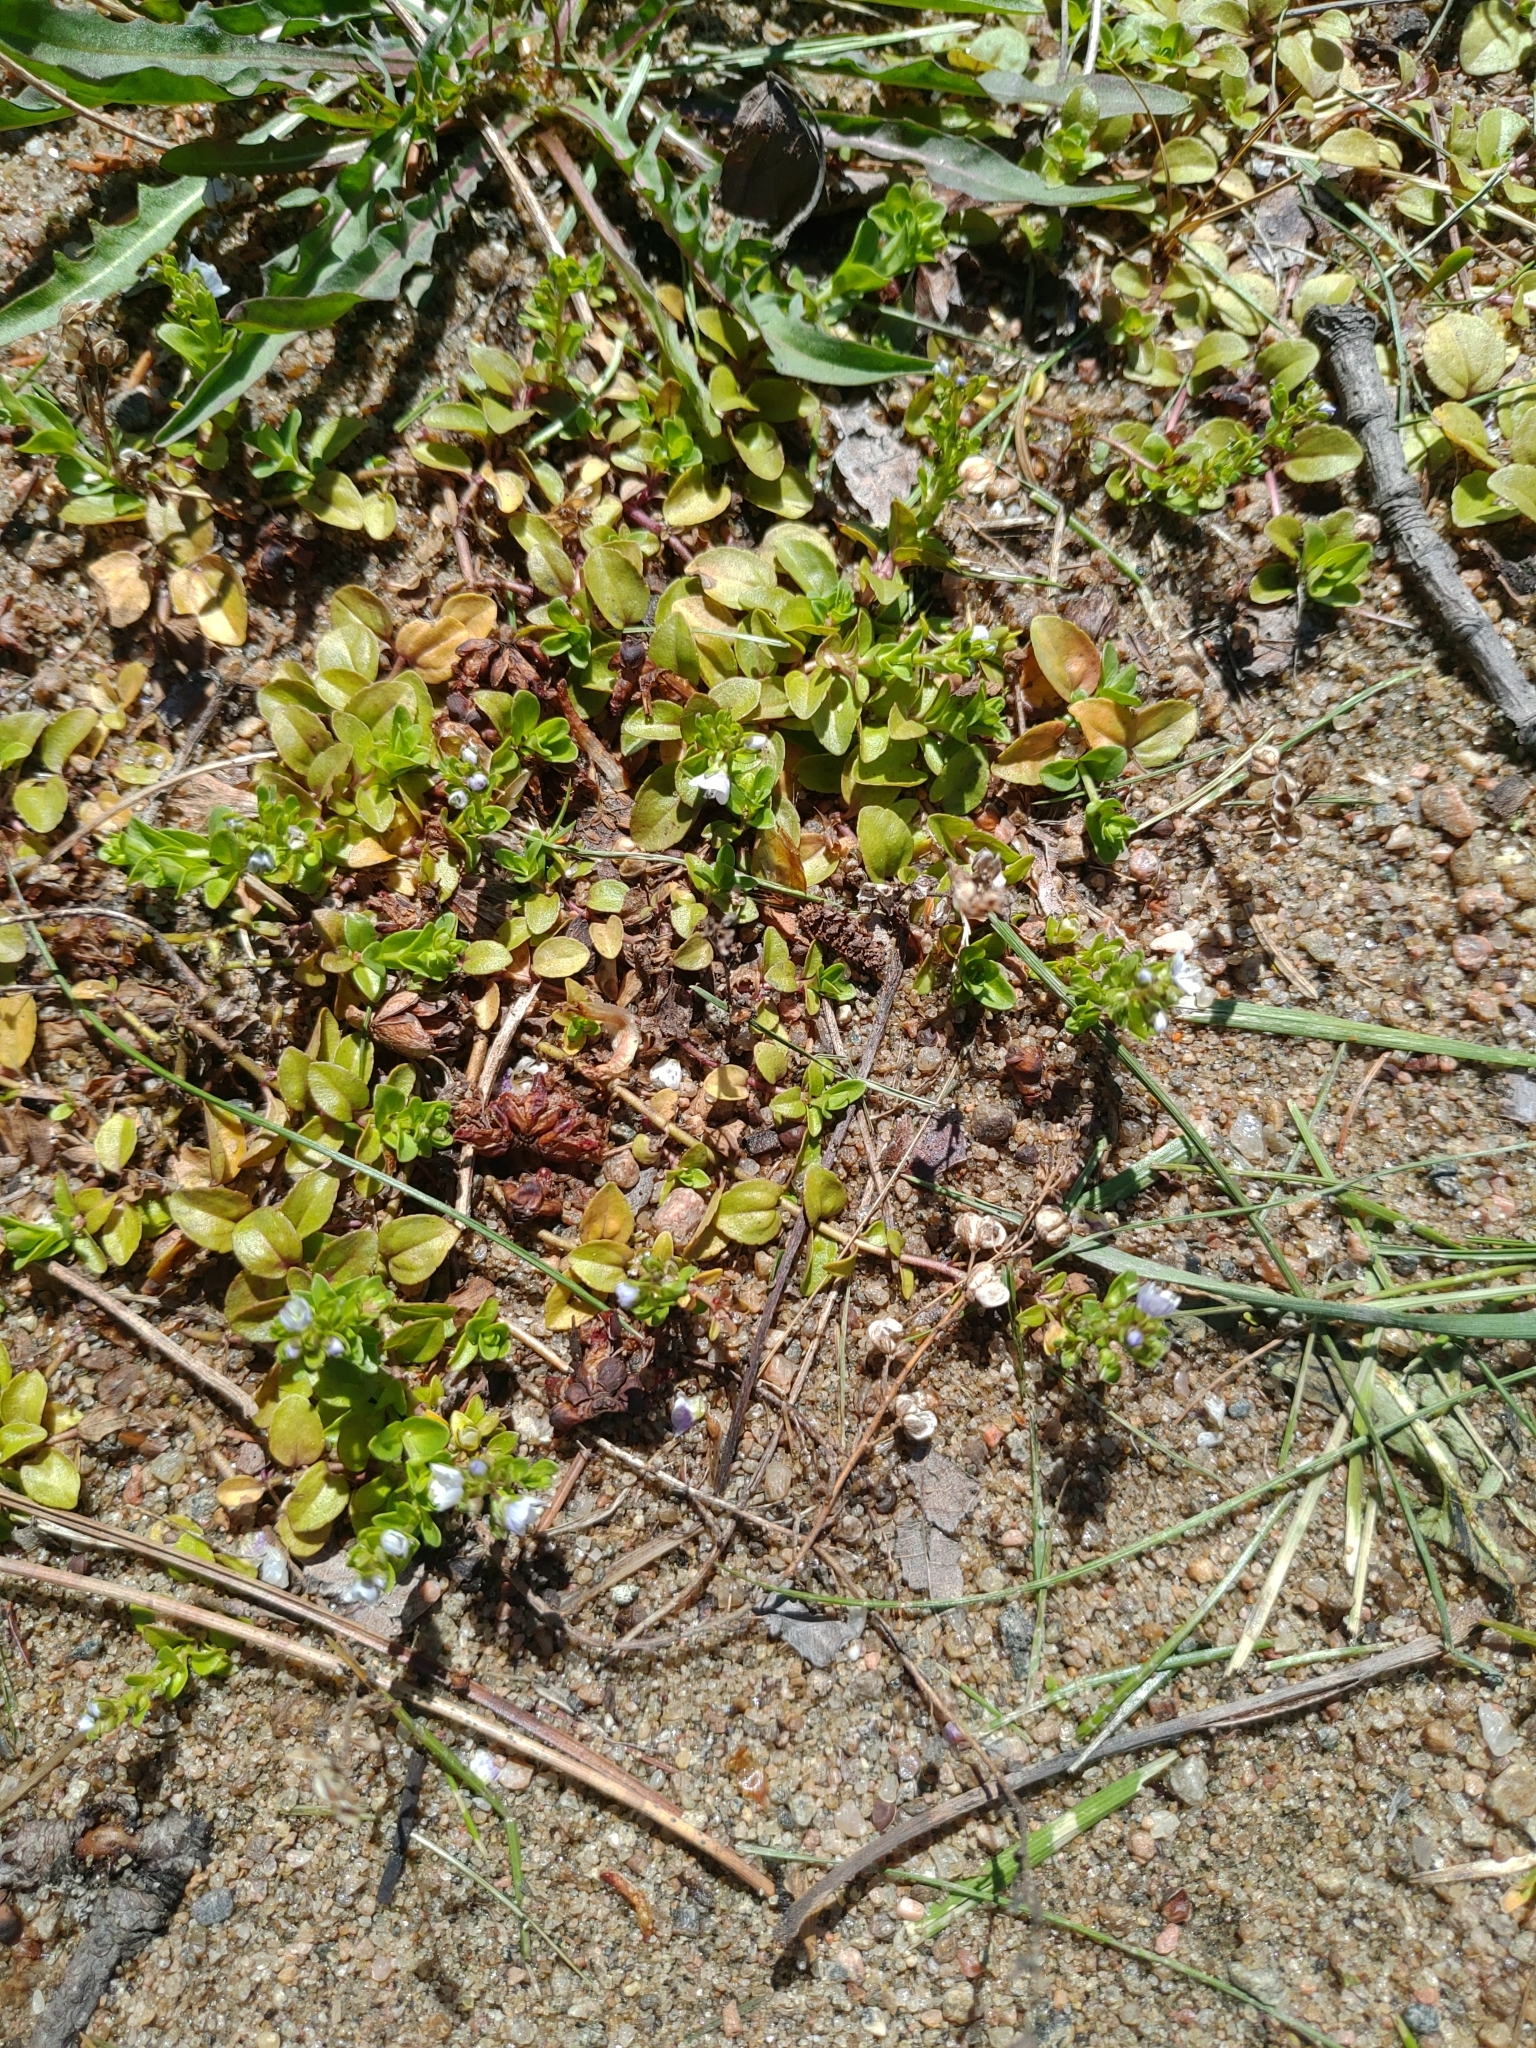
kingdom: Plantae
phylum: Tracheophyta
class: Magnoliopsida
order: Lamiales
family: Plantaginaceae
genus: Veronica
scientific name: Veronica serpyllifolia
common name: Thyme-leaved speedwell
